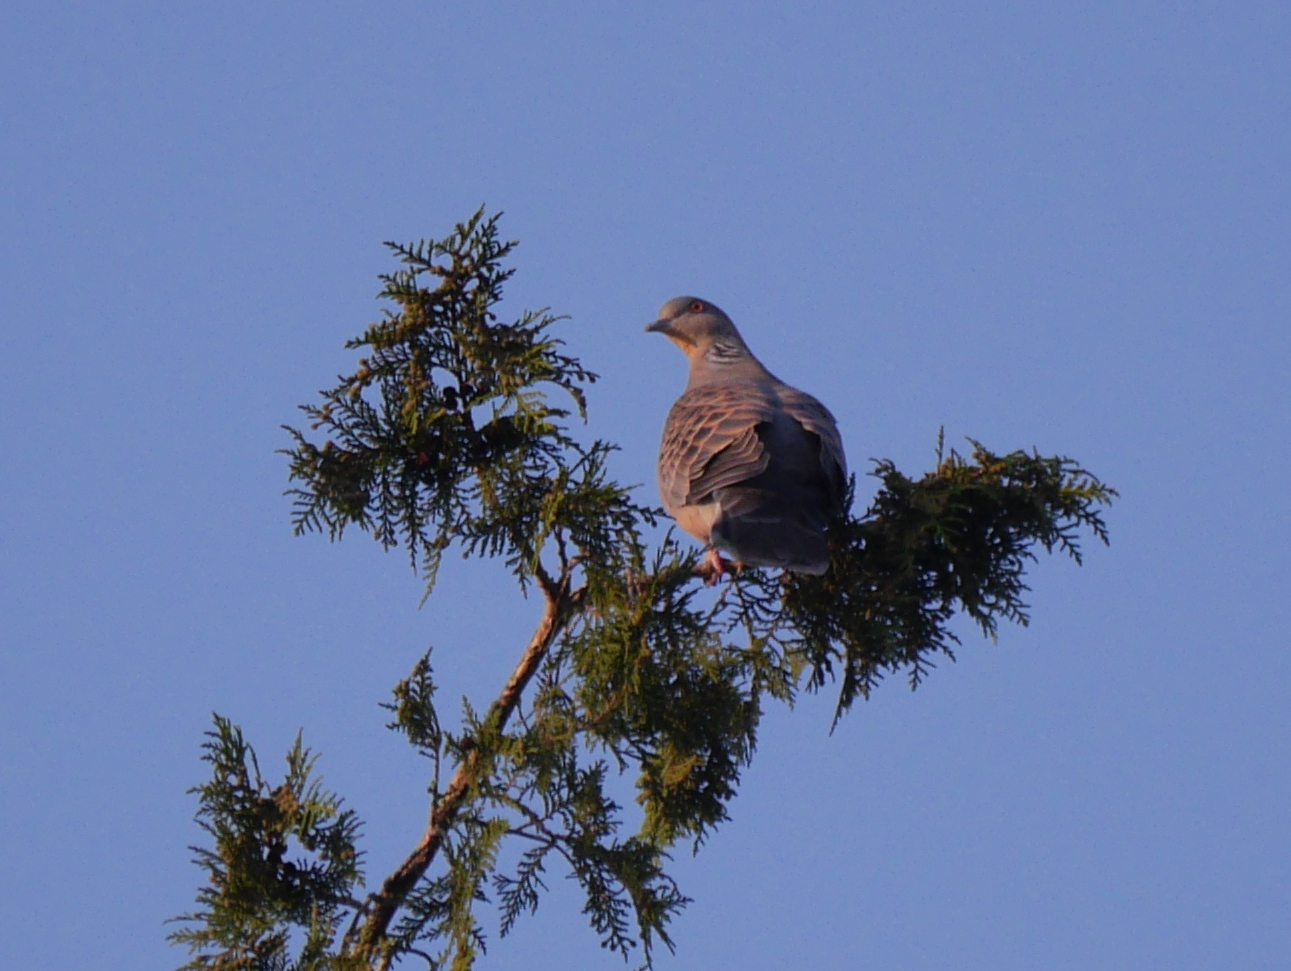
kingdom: Animalia
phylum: Chordata
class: Aves
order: Columbiformes
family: Columbidae
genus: Streptopelia
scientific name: Streptopelia orientalis
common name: Oriental turtle dove
